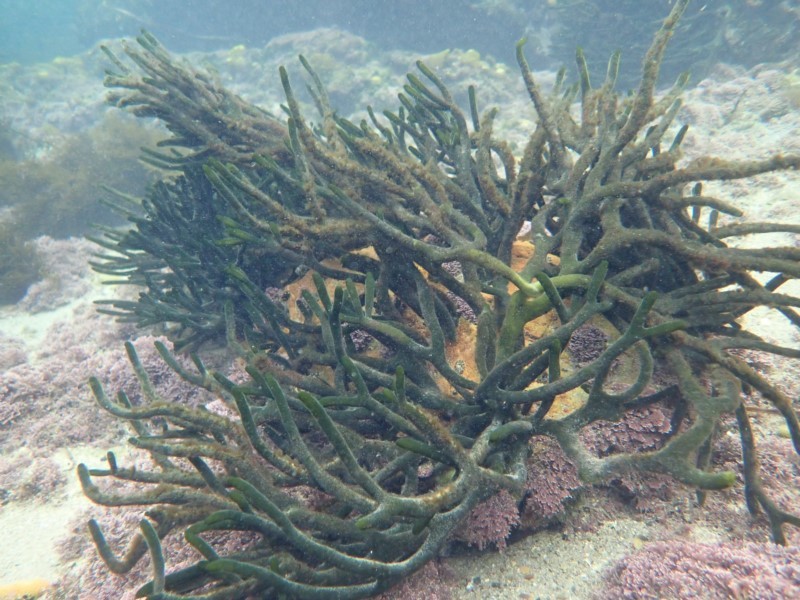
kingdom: Plantae
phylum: Chlorophyta
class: Ulvophyceae
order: Bryopsidales
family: Codiaceae
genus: Codium
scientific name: Codium fragile
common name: Dead man's fingers
